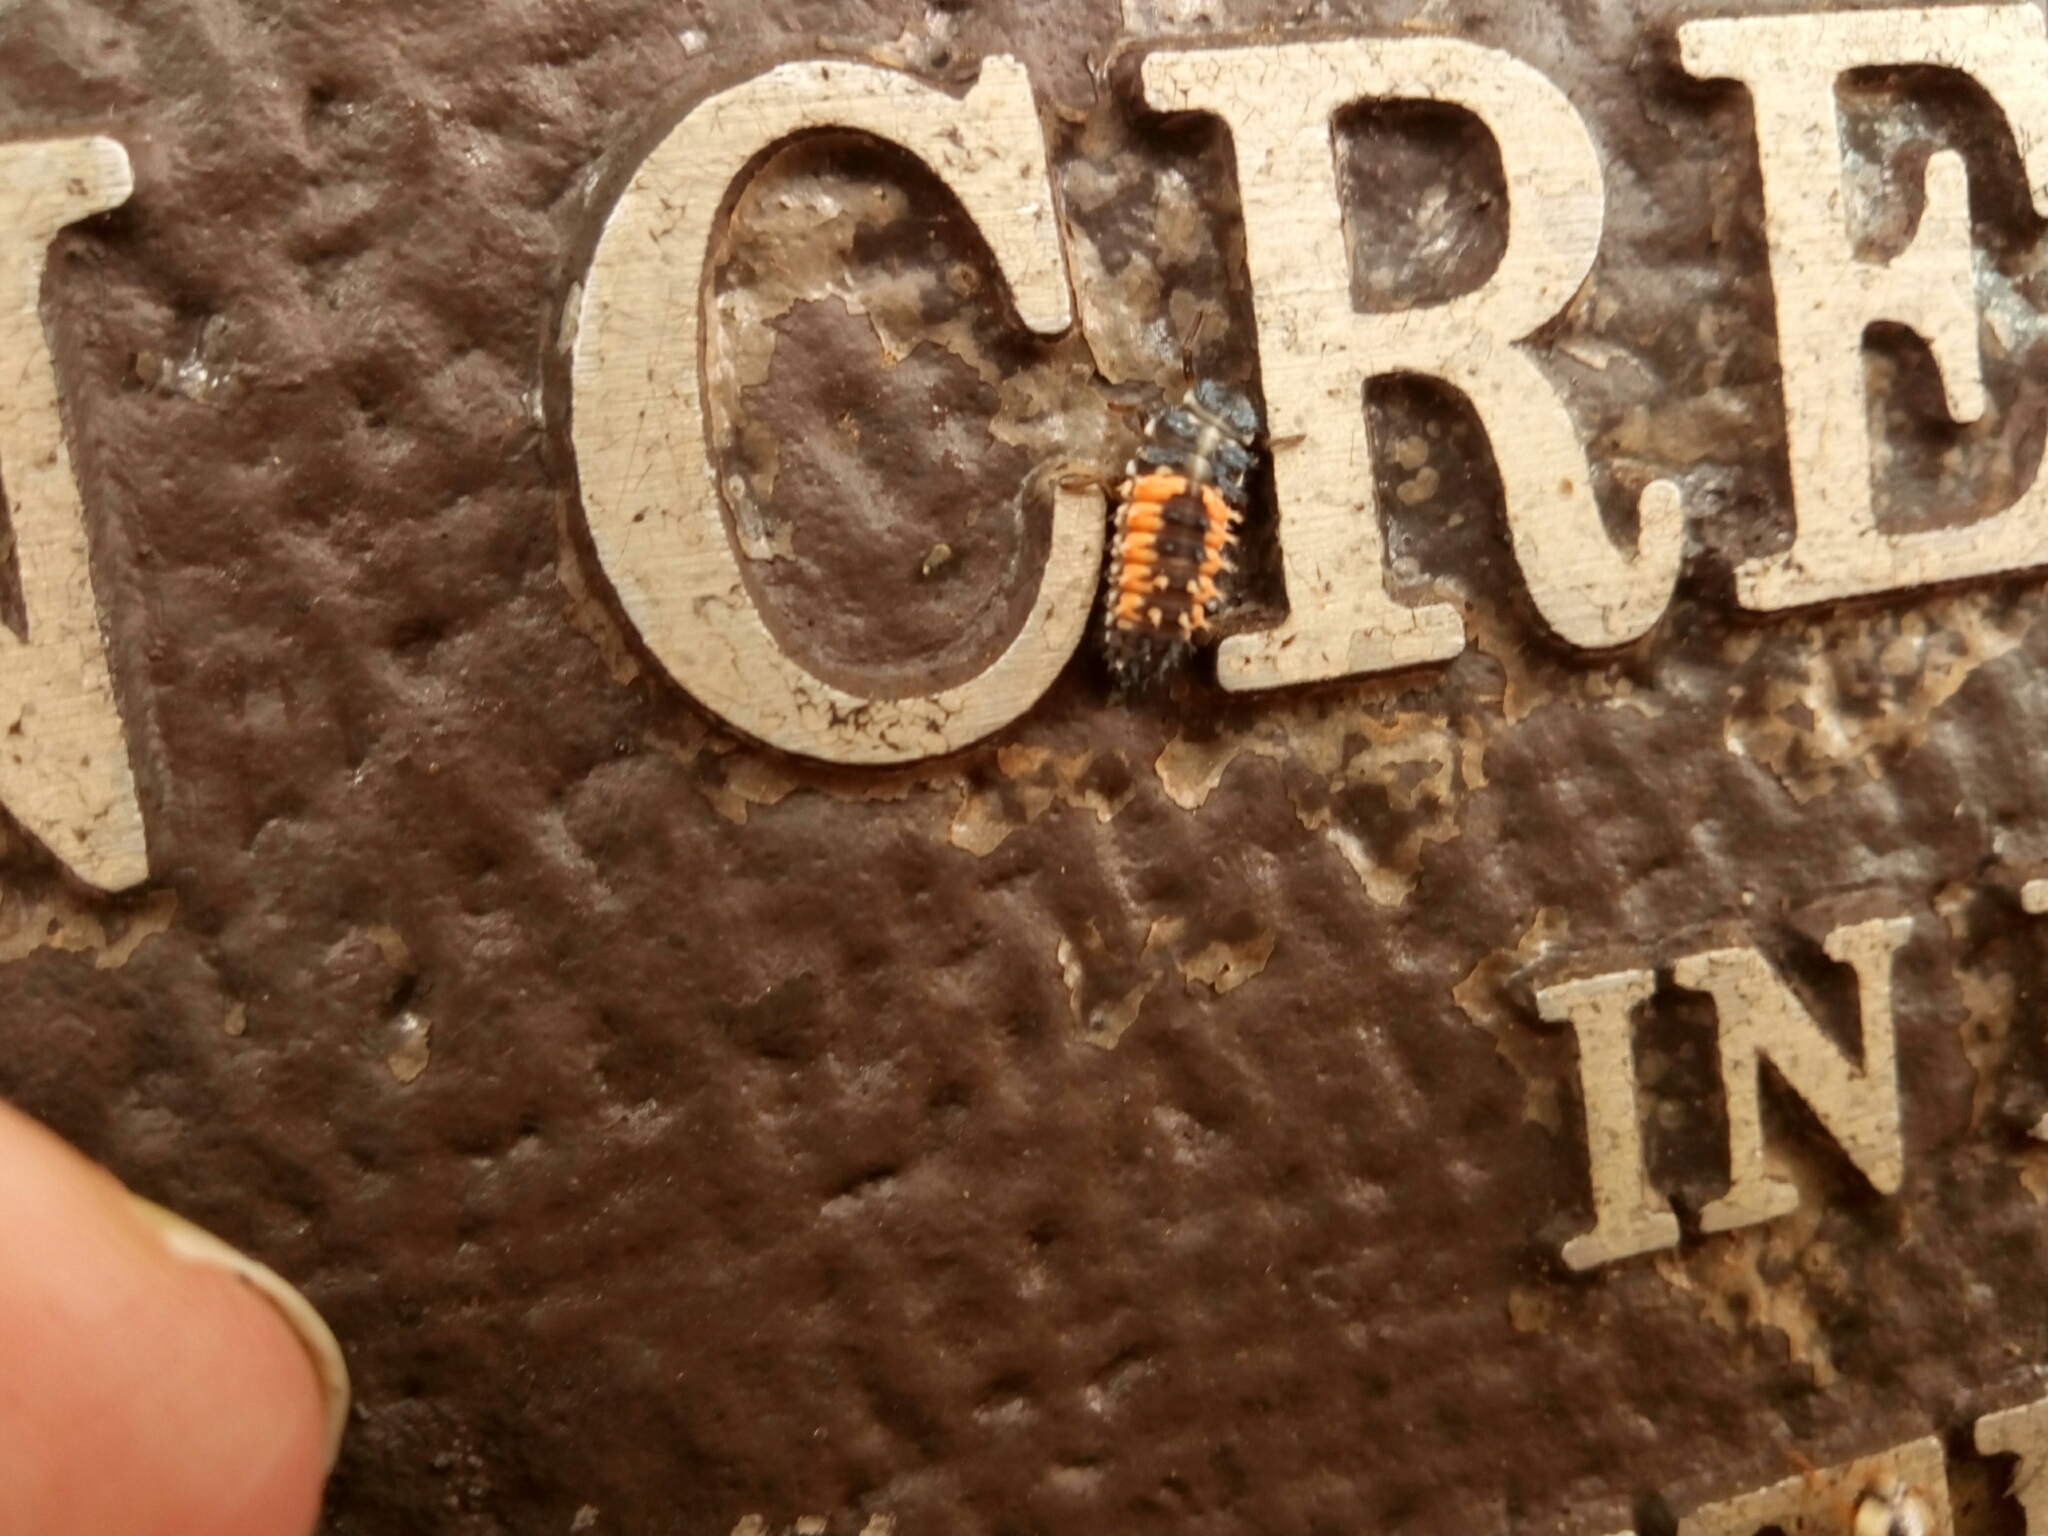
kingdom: Animalia
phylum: Arthropoda
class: Insecta
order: Coleoptera
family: Coccinellidae
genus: Harmonia
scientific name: Harmonia axyridis
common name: Harlequin ladybird
